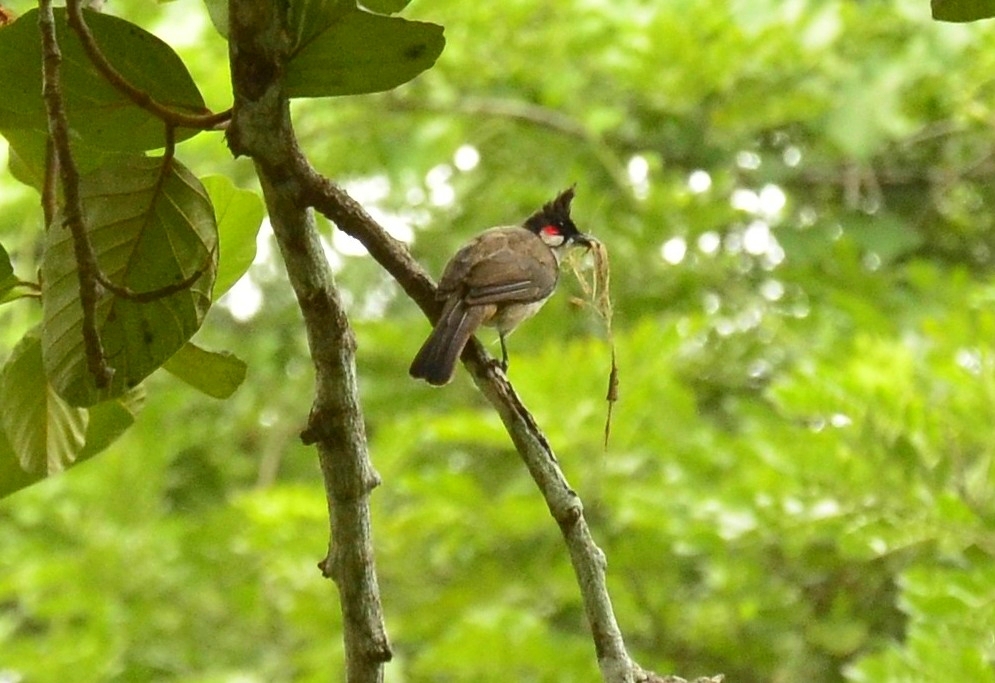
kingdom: Animalia
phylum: Chordata
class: Aves
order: Passeriformes
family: Pycnonotidae
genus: Pycnonotus
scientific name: Pycnonotus jocosus
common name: Red-whiskered bulbul
